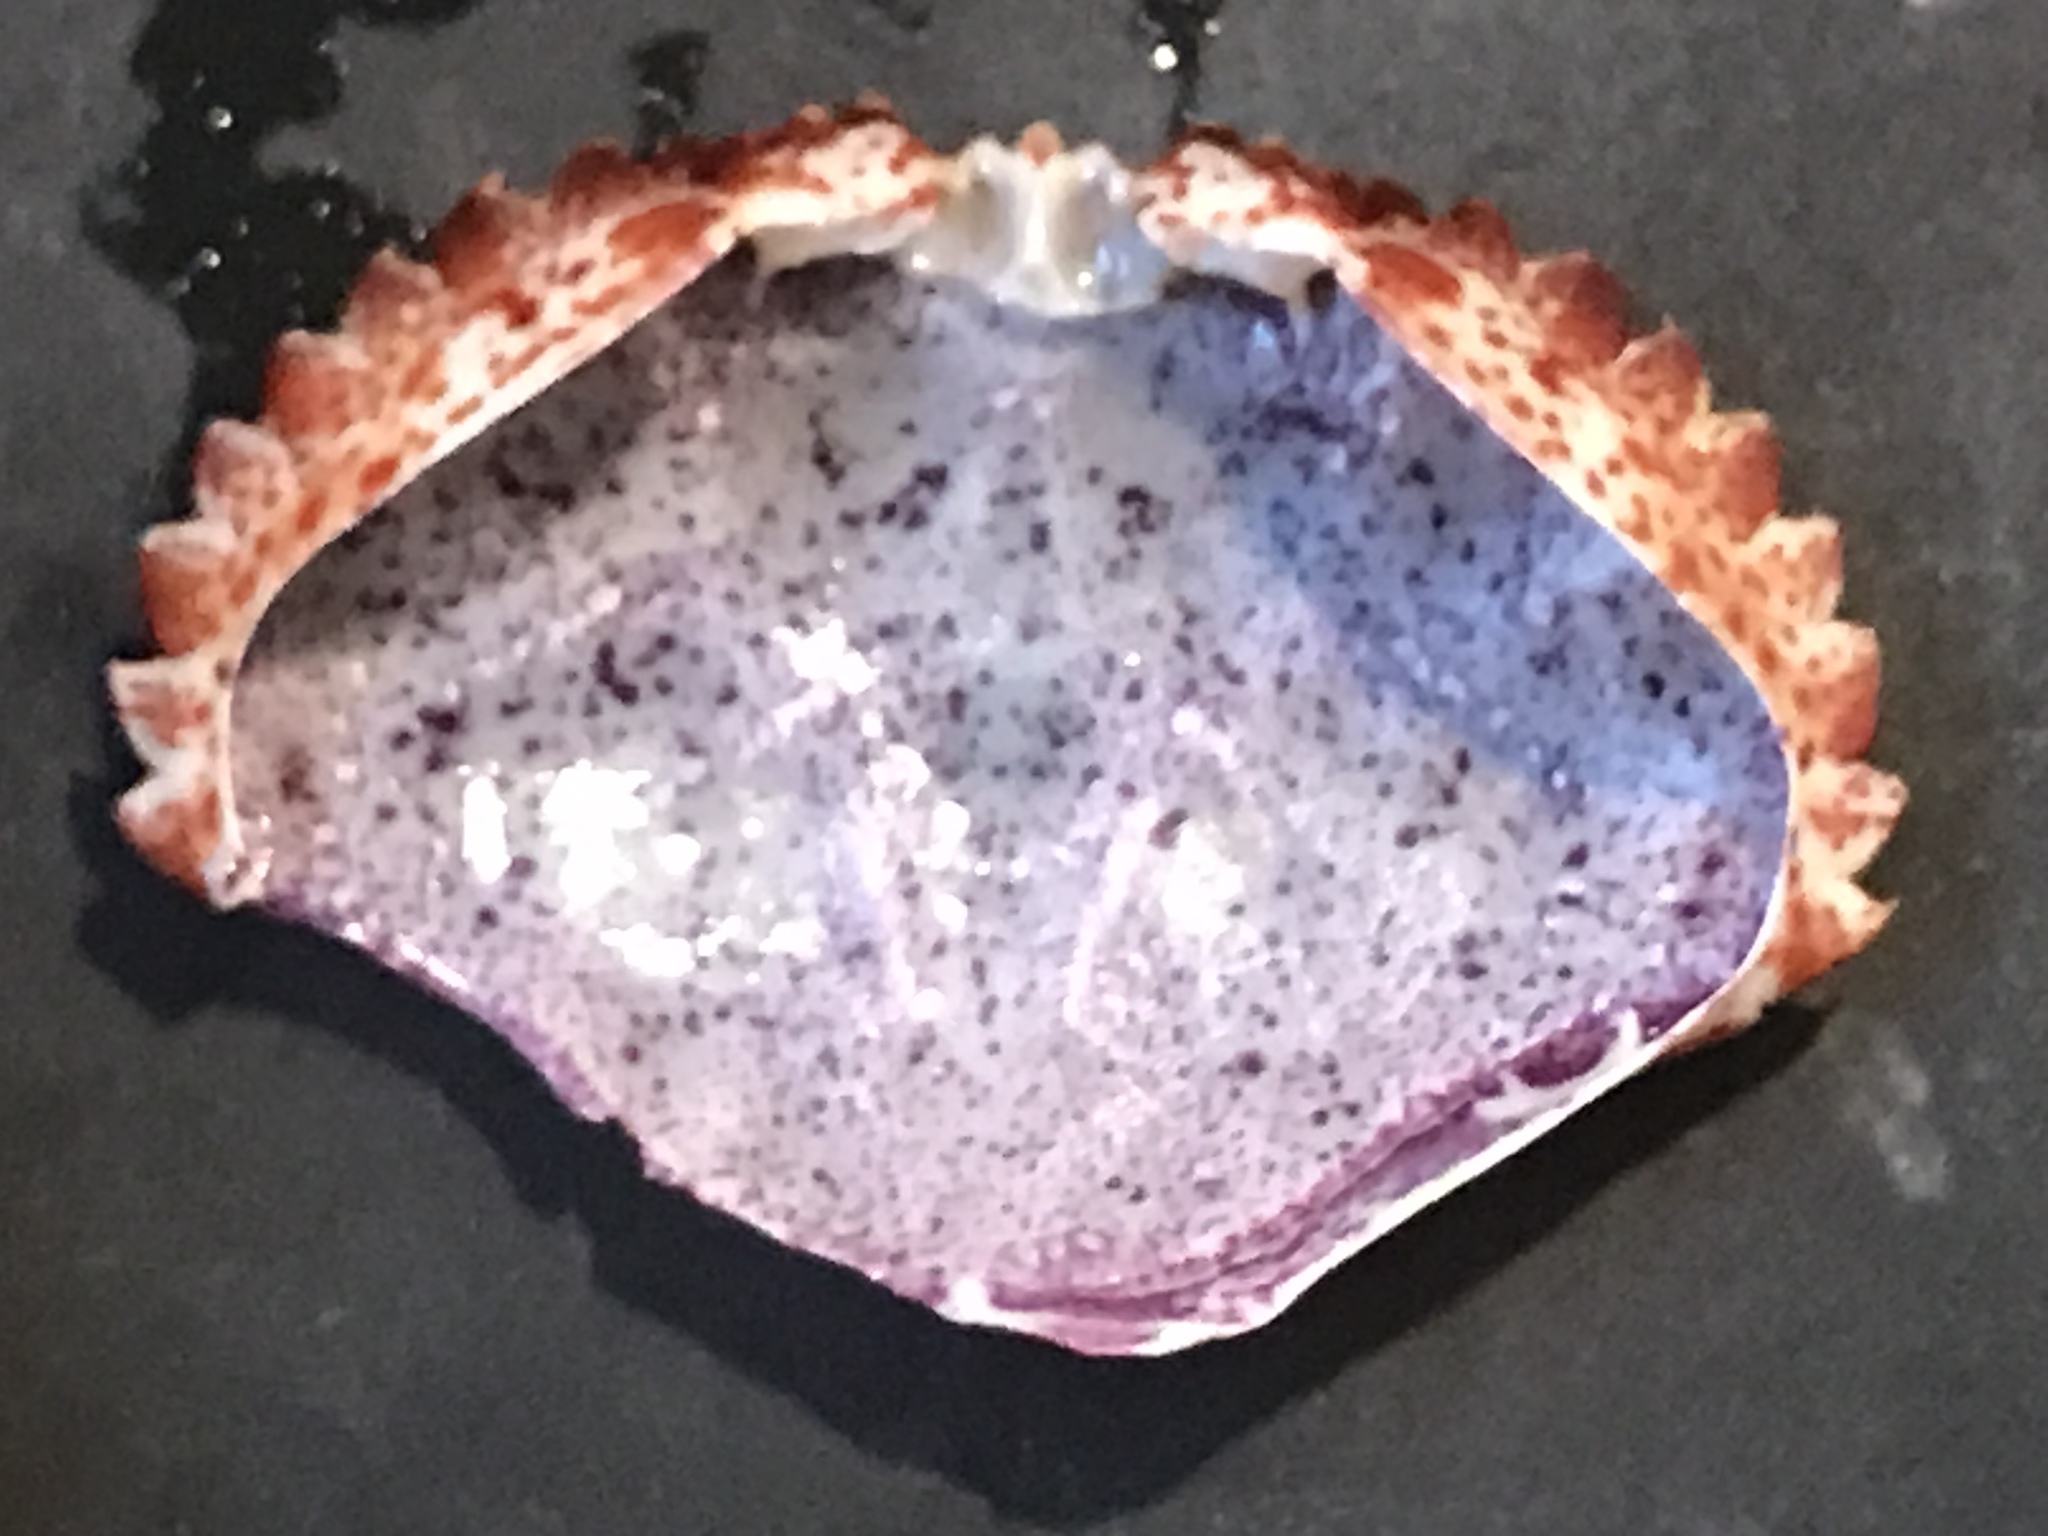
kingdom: Animalia
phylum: Arthropoda
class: Malacostraca
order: Decapoda
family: Cancridae
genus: Romaleon
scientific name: Romaleon antennarium
